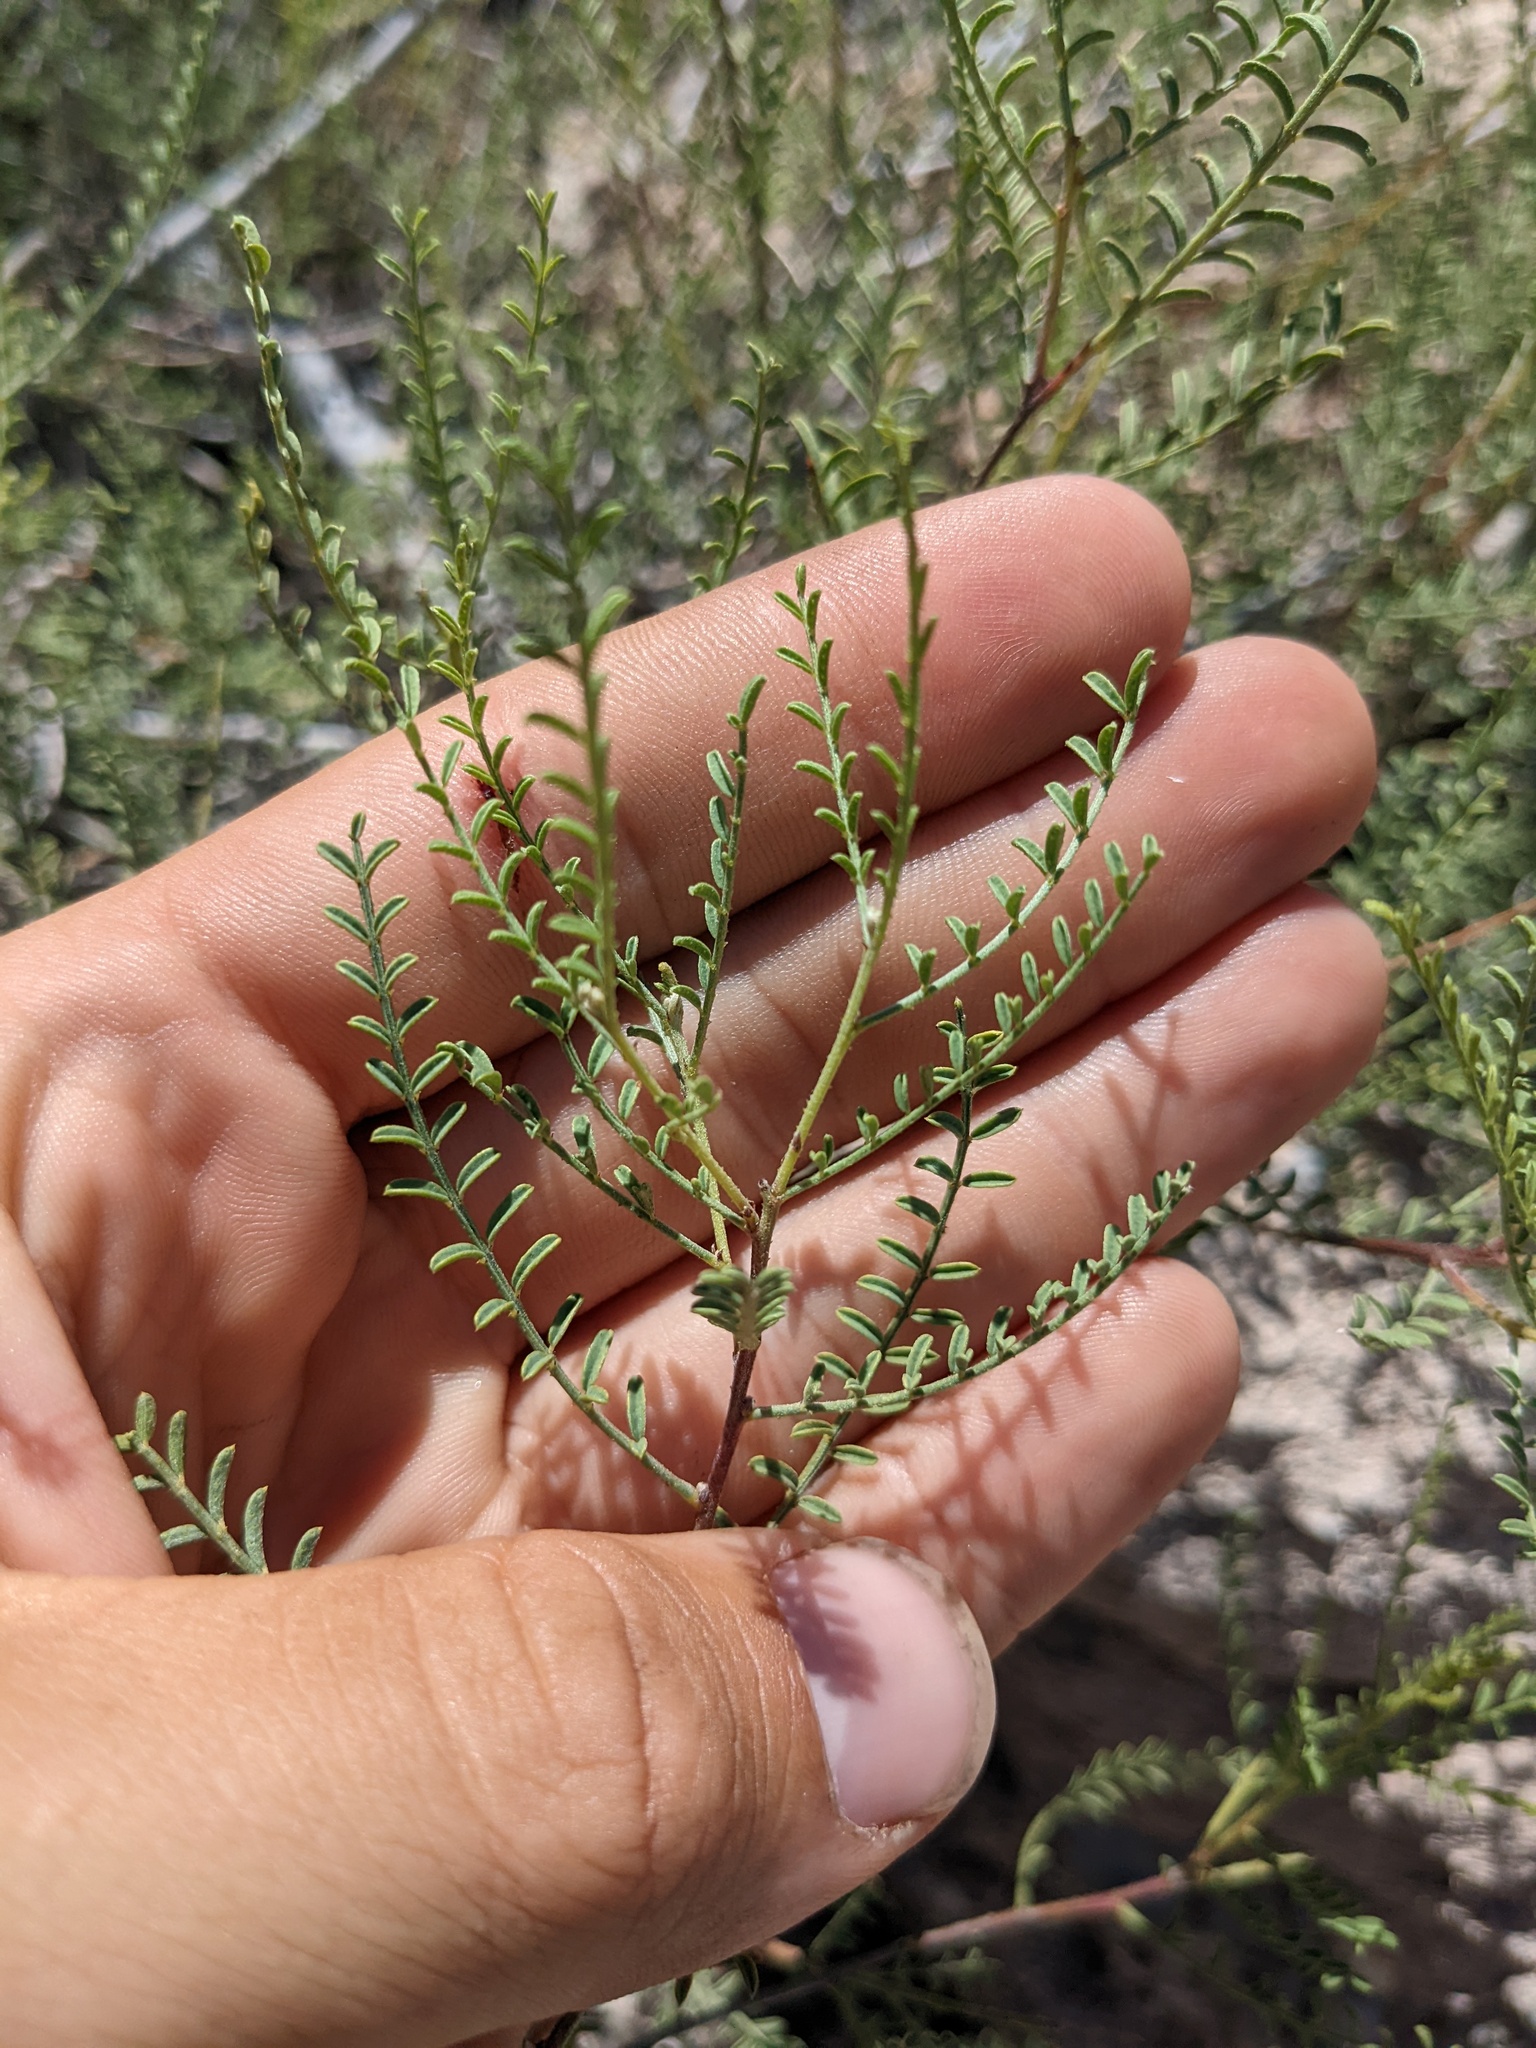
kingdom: Plantae
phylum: Tracheophyta
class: Magnoliopsida
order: Fabales
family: Fabaceae
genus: Parryella
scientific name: Parryella filifolia
